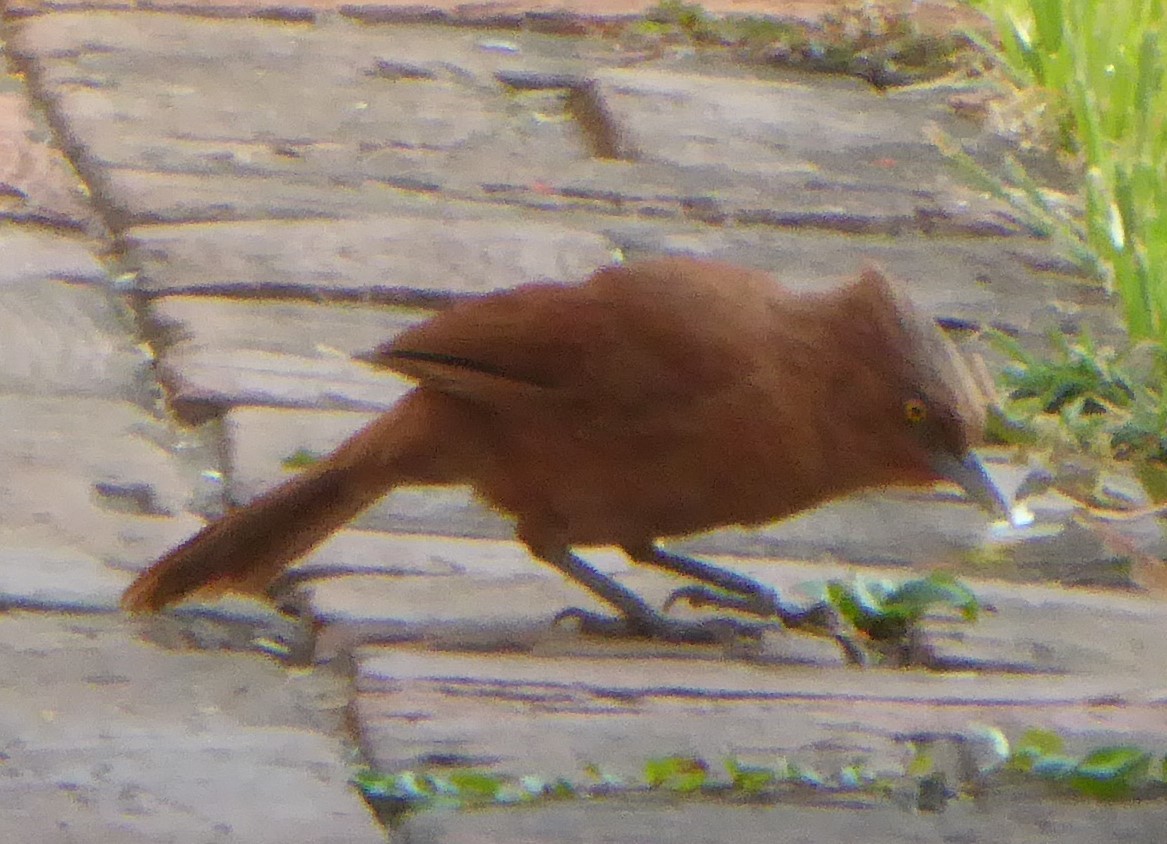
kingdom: Animalia
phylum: Chordata
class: Aves
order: Passeriformes
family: Furnariidae
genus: Pseudoseisura
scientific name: Pseudoseisura unirufa
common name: Grey-crested cacholote
